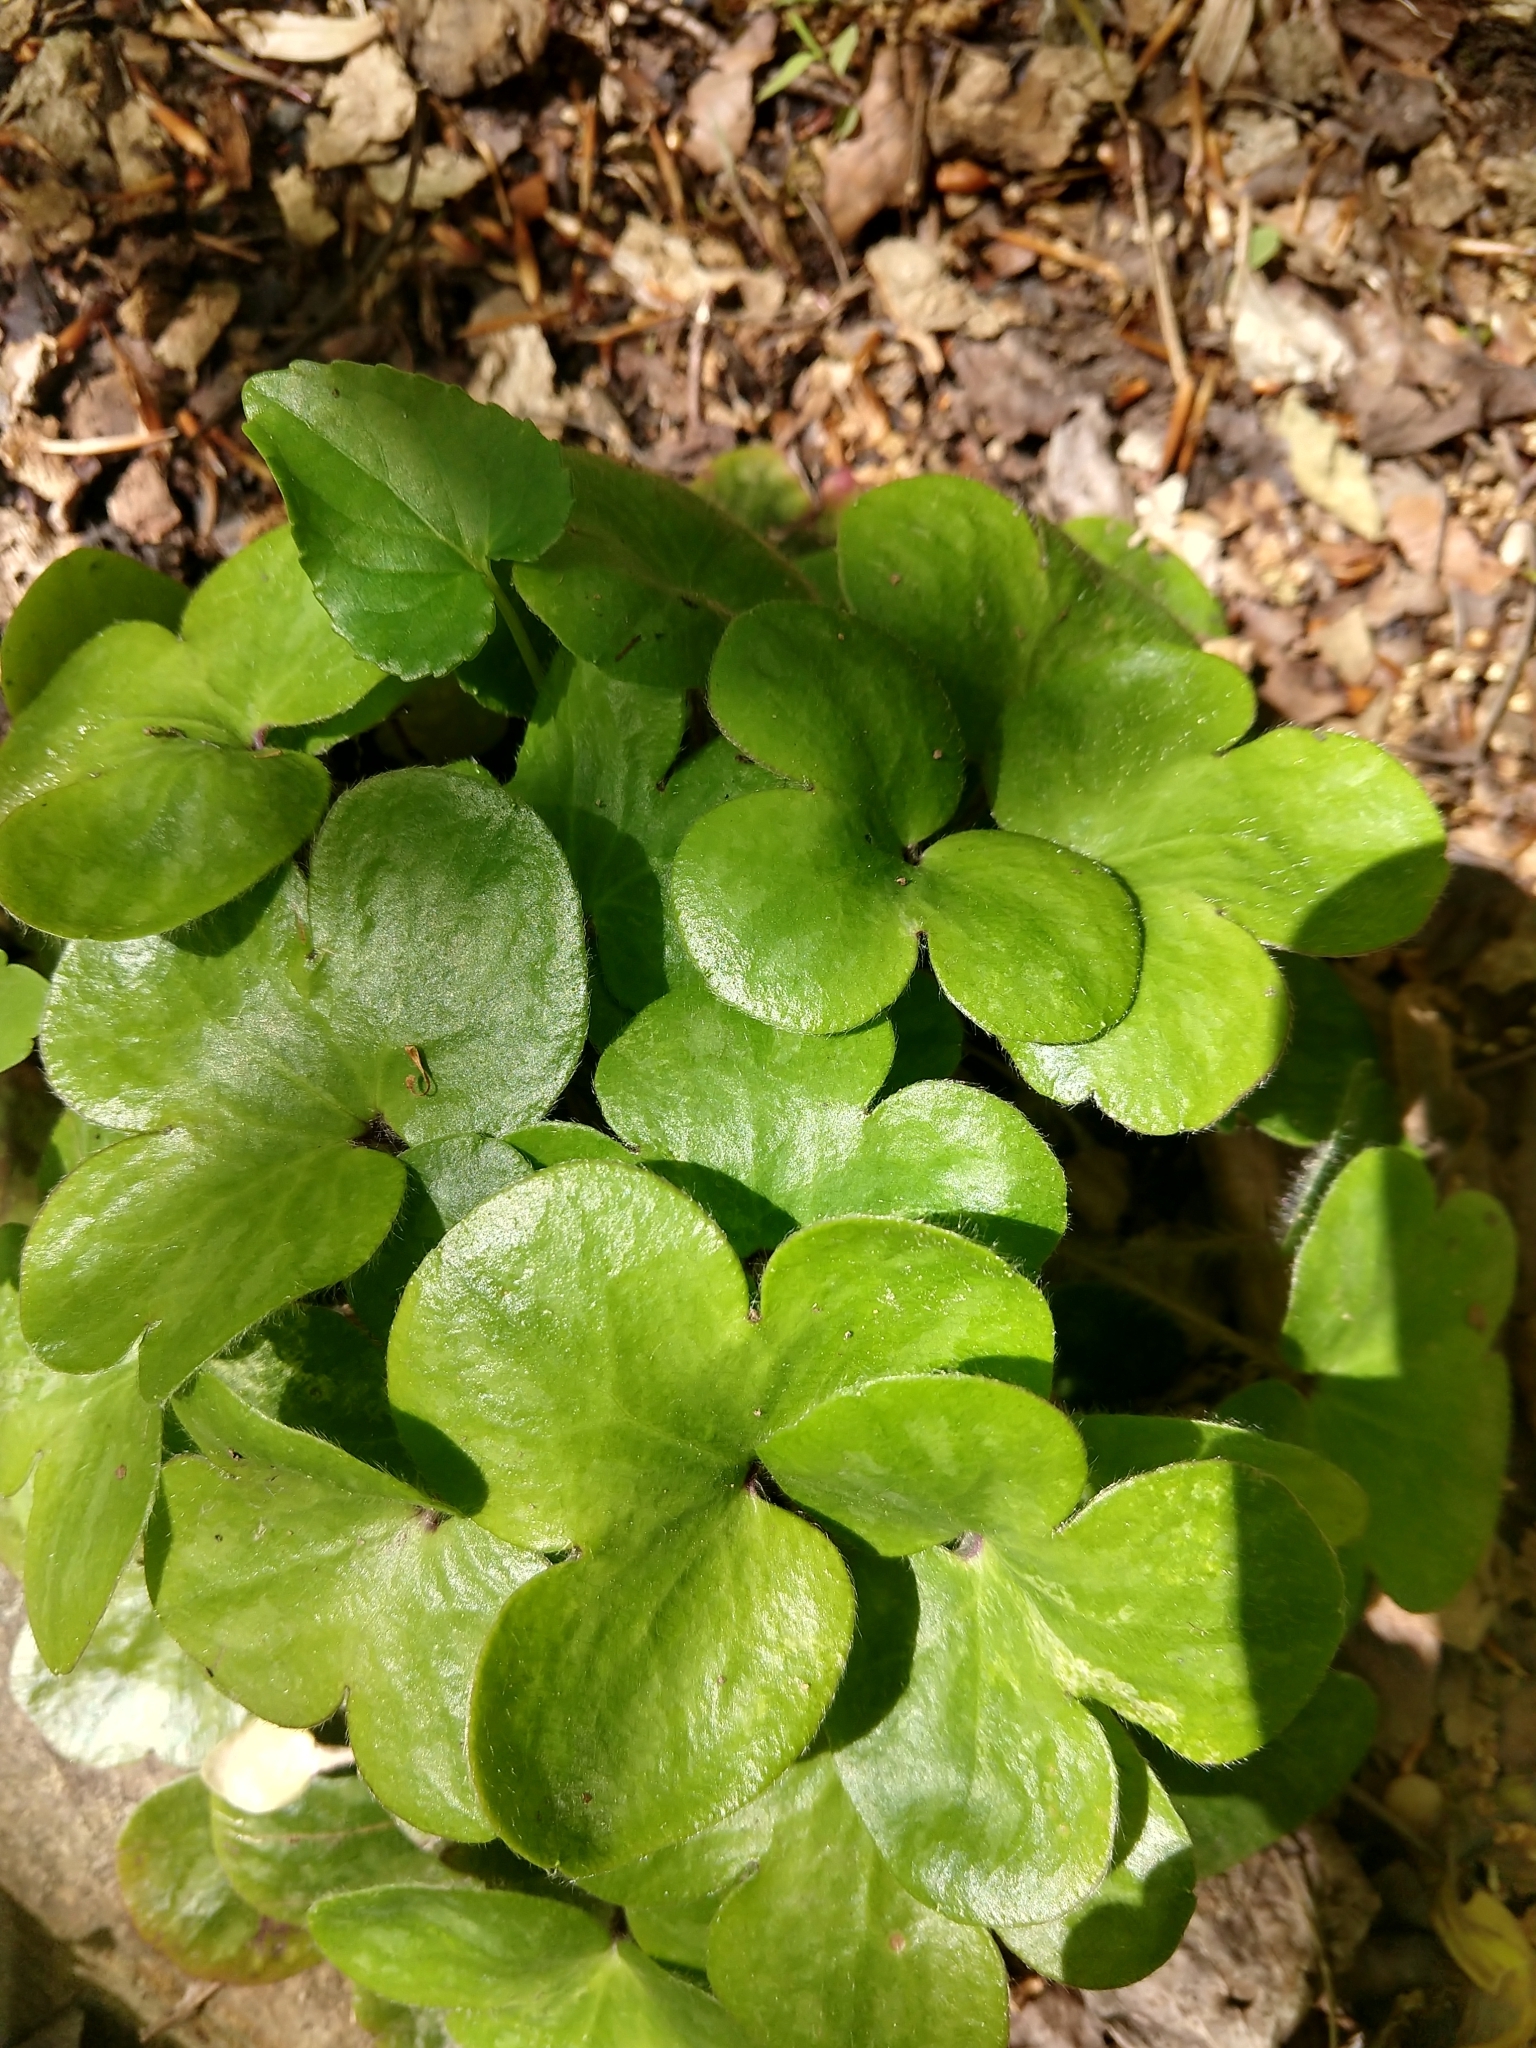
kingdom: Plantae
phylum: Tracheophyta
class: Magnoliopsida
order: Ranunculales
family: Ranunculaceae
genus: Hepatica
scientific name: Hepatica americana
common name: American hepatica
